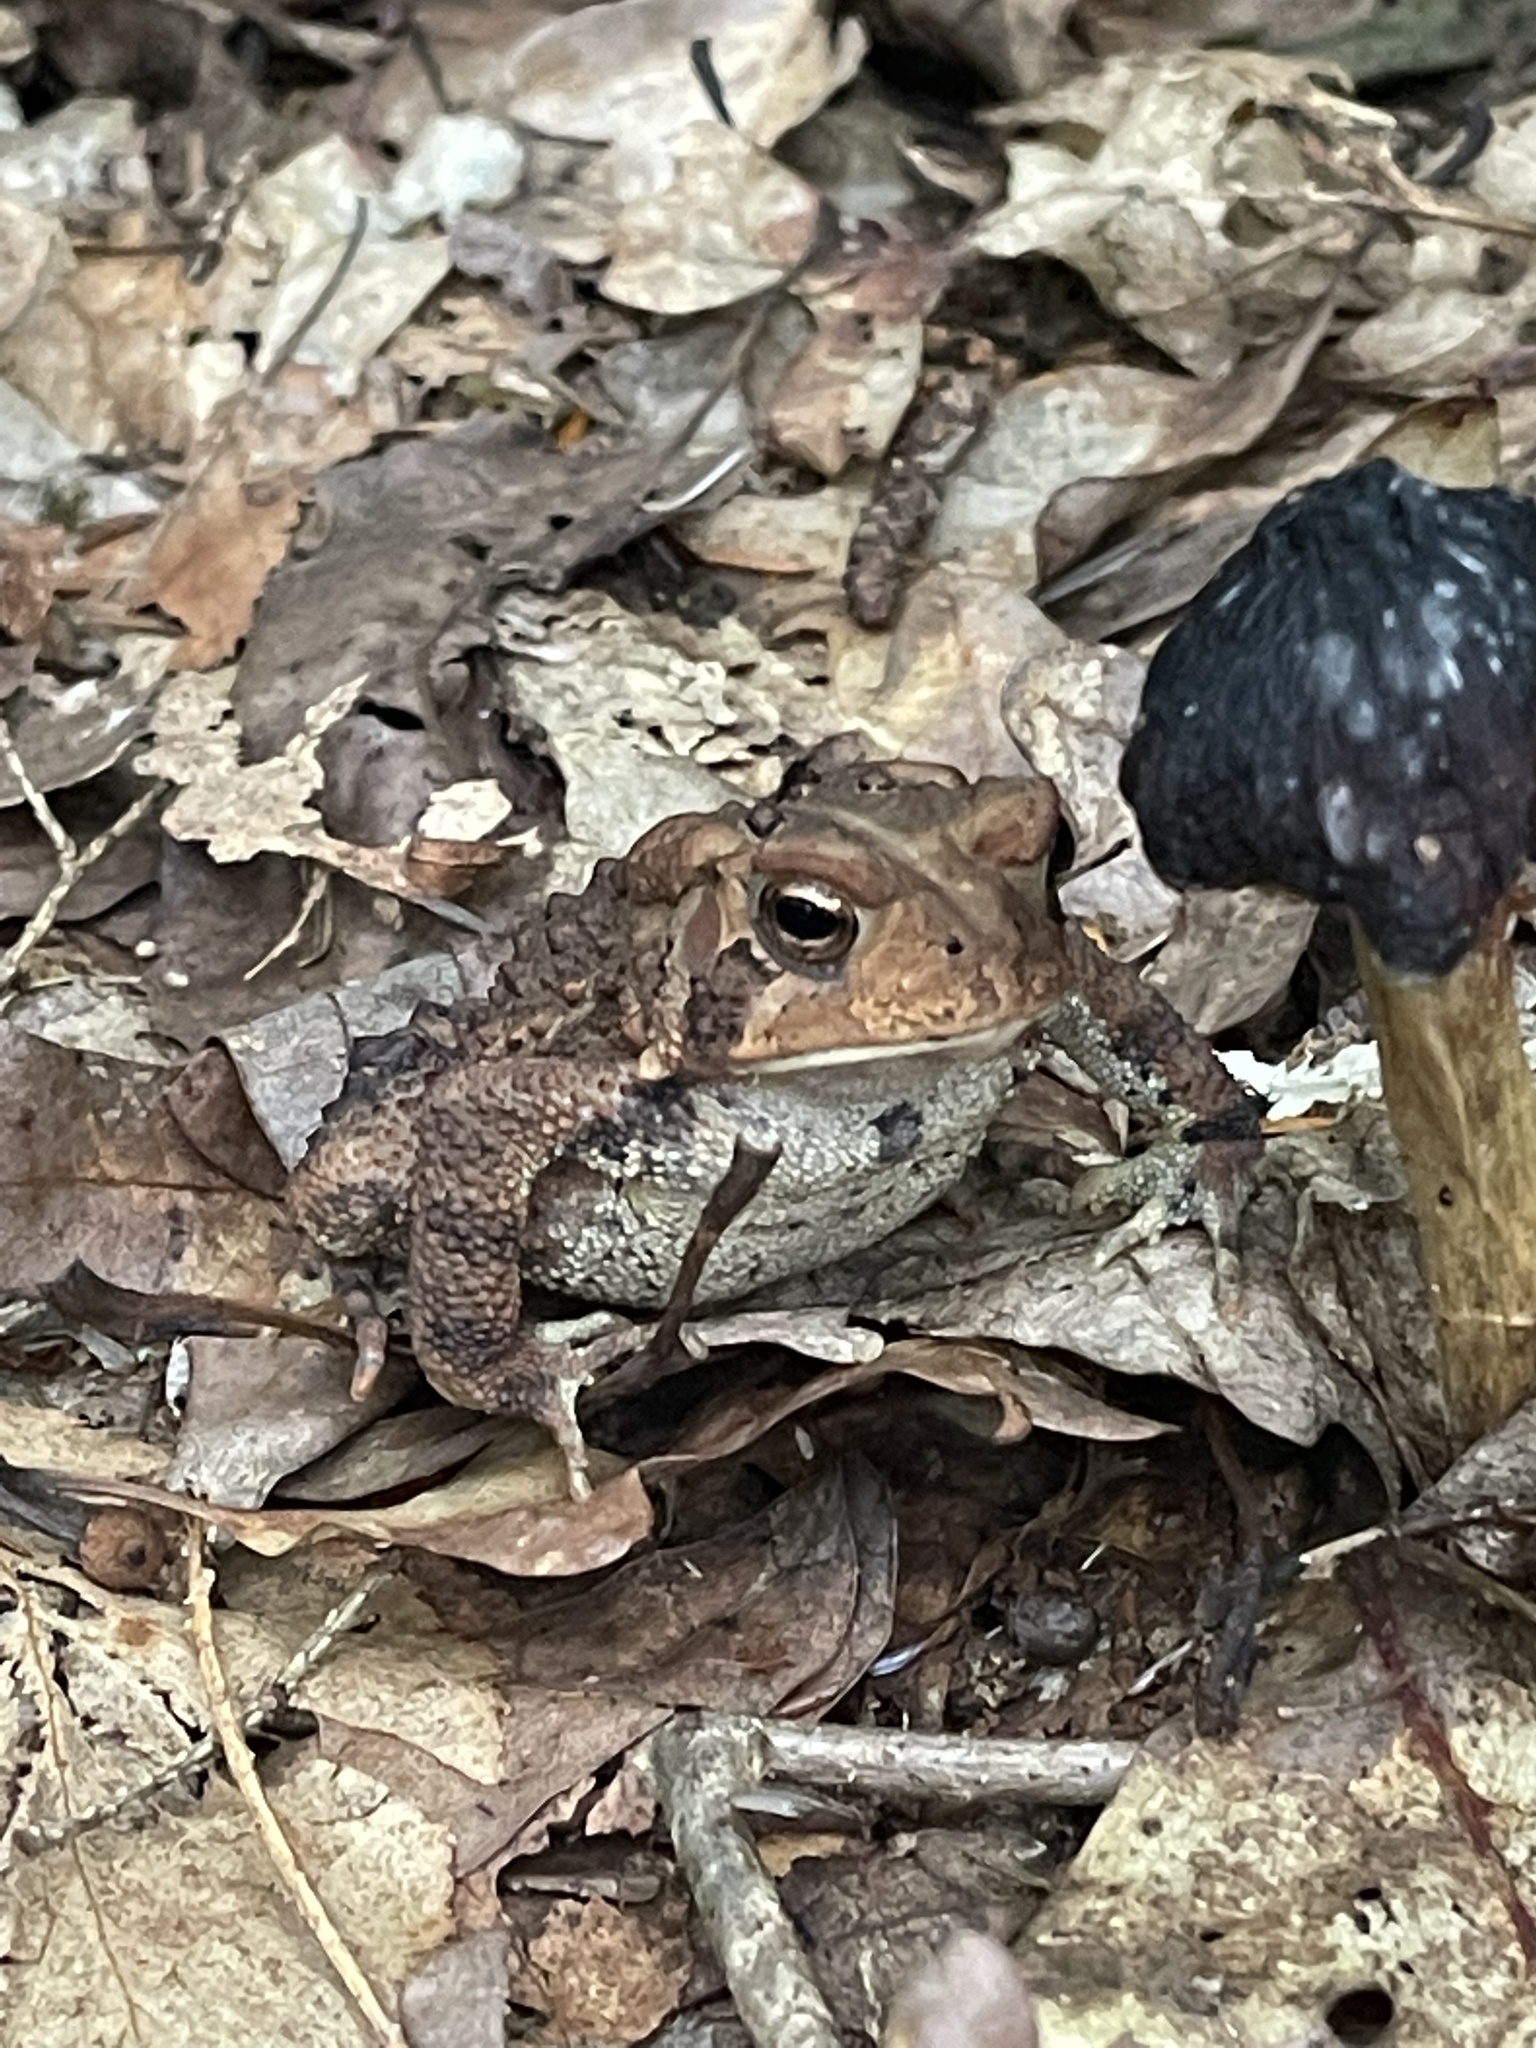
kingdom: Animalia
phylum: Chordata
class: Amphibia
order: Anura
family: Bufonidae
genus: Anaxyrus
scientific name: Anaxyrus americanus
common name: American toad
